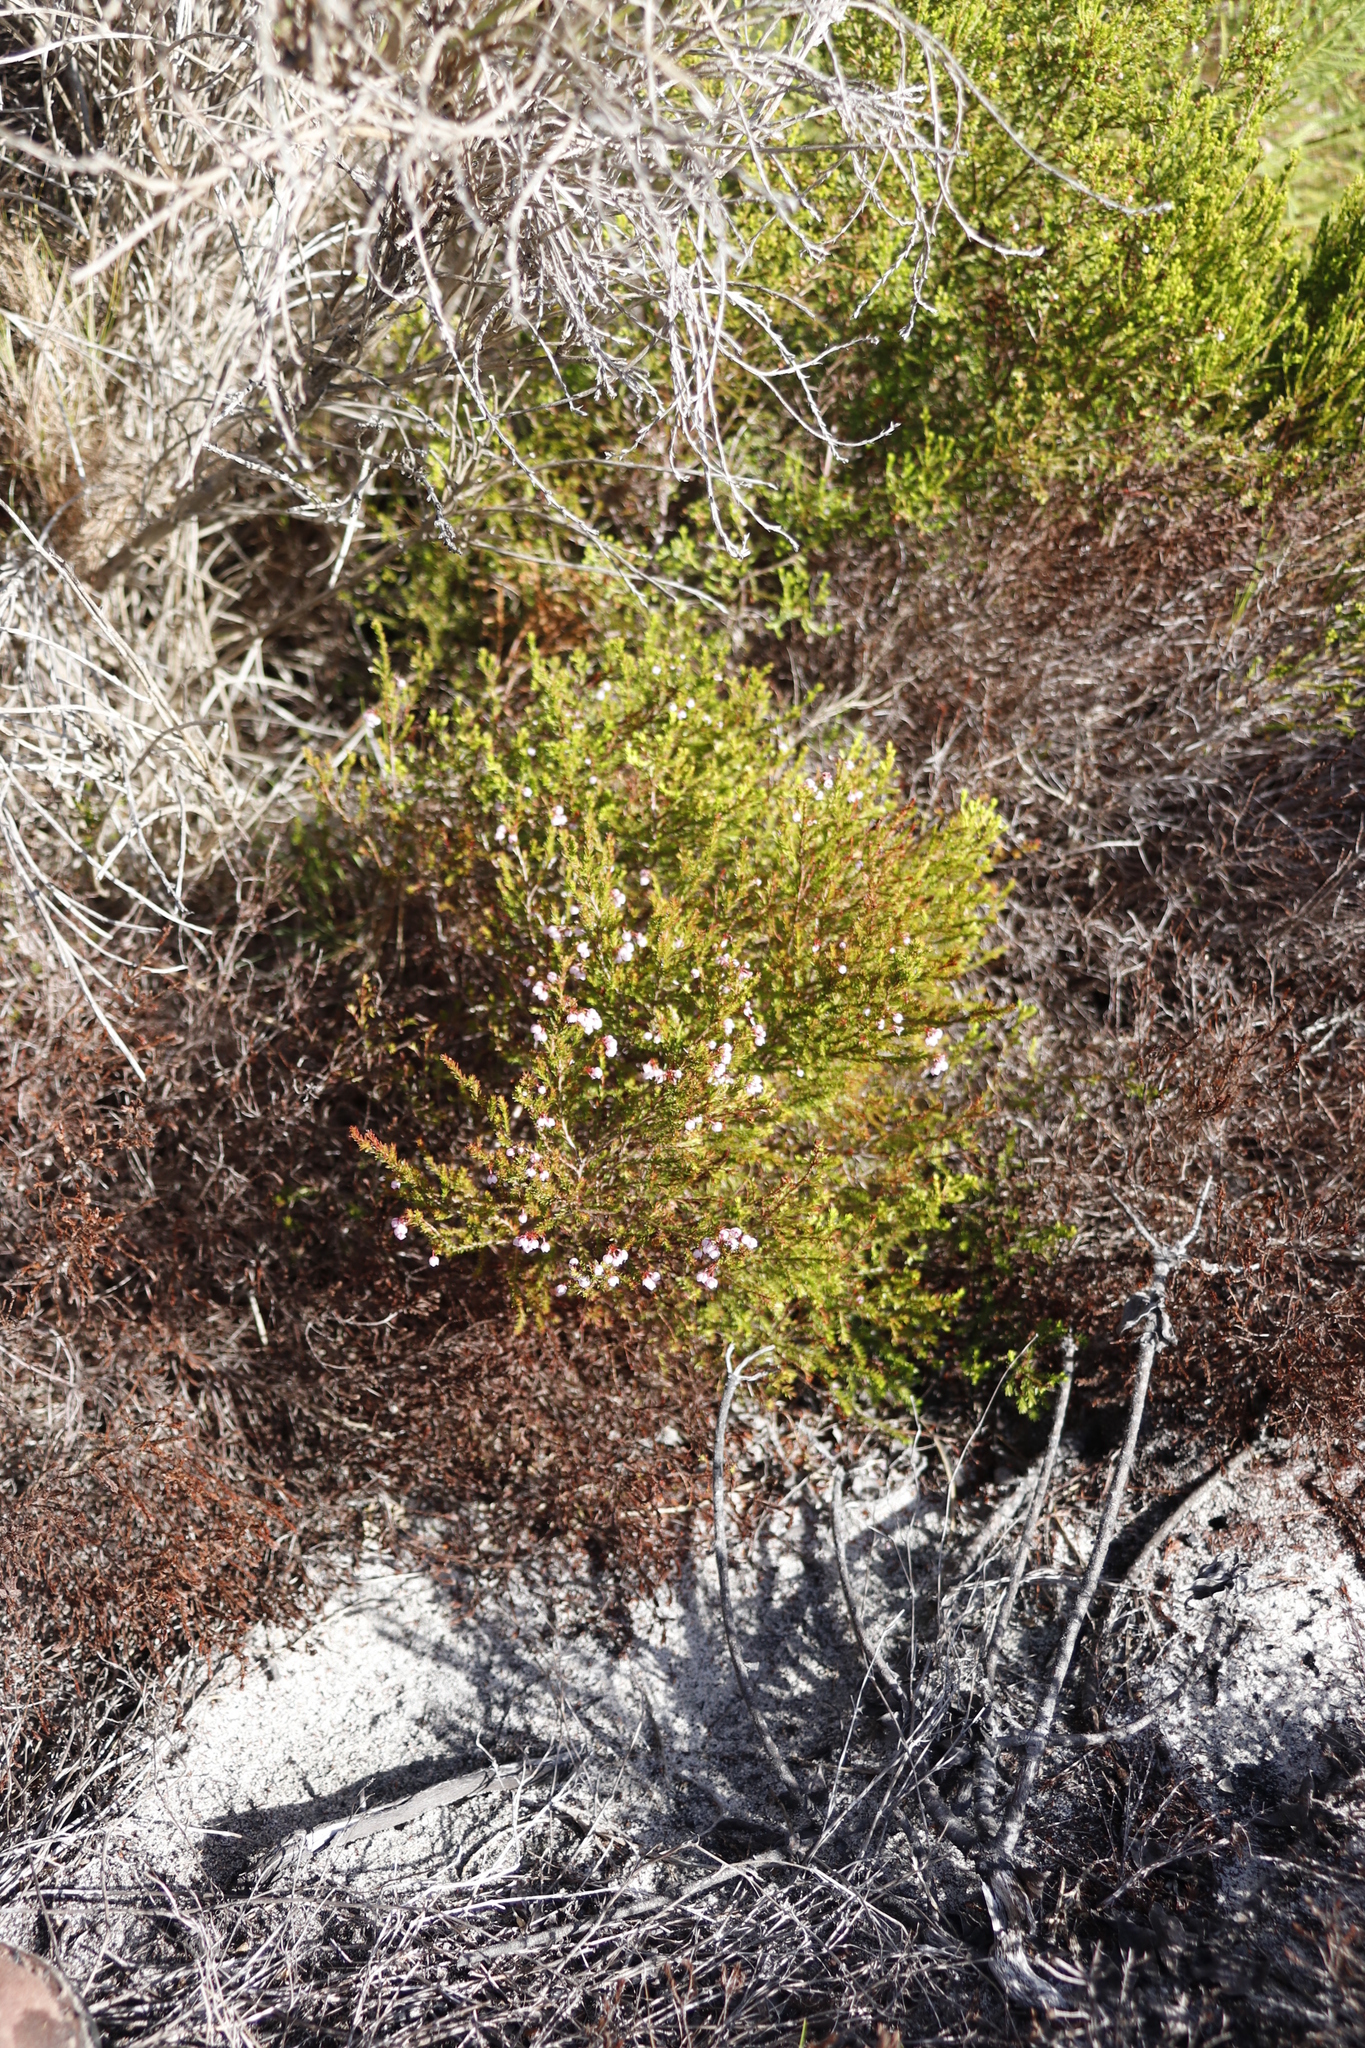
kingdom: Plantae
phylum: Tracheophyta
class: Magnoliopsida
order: Ericales
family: Ericaceae
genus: Erica
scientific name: Erica subdivaricata
